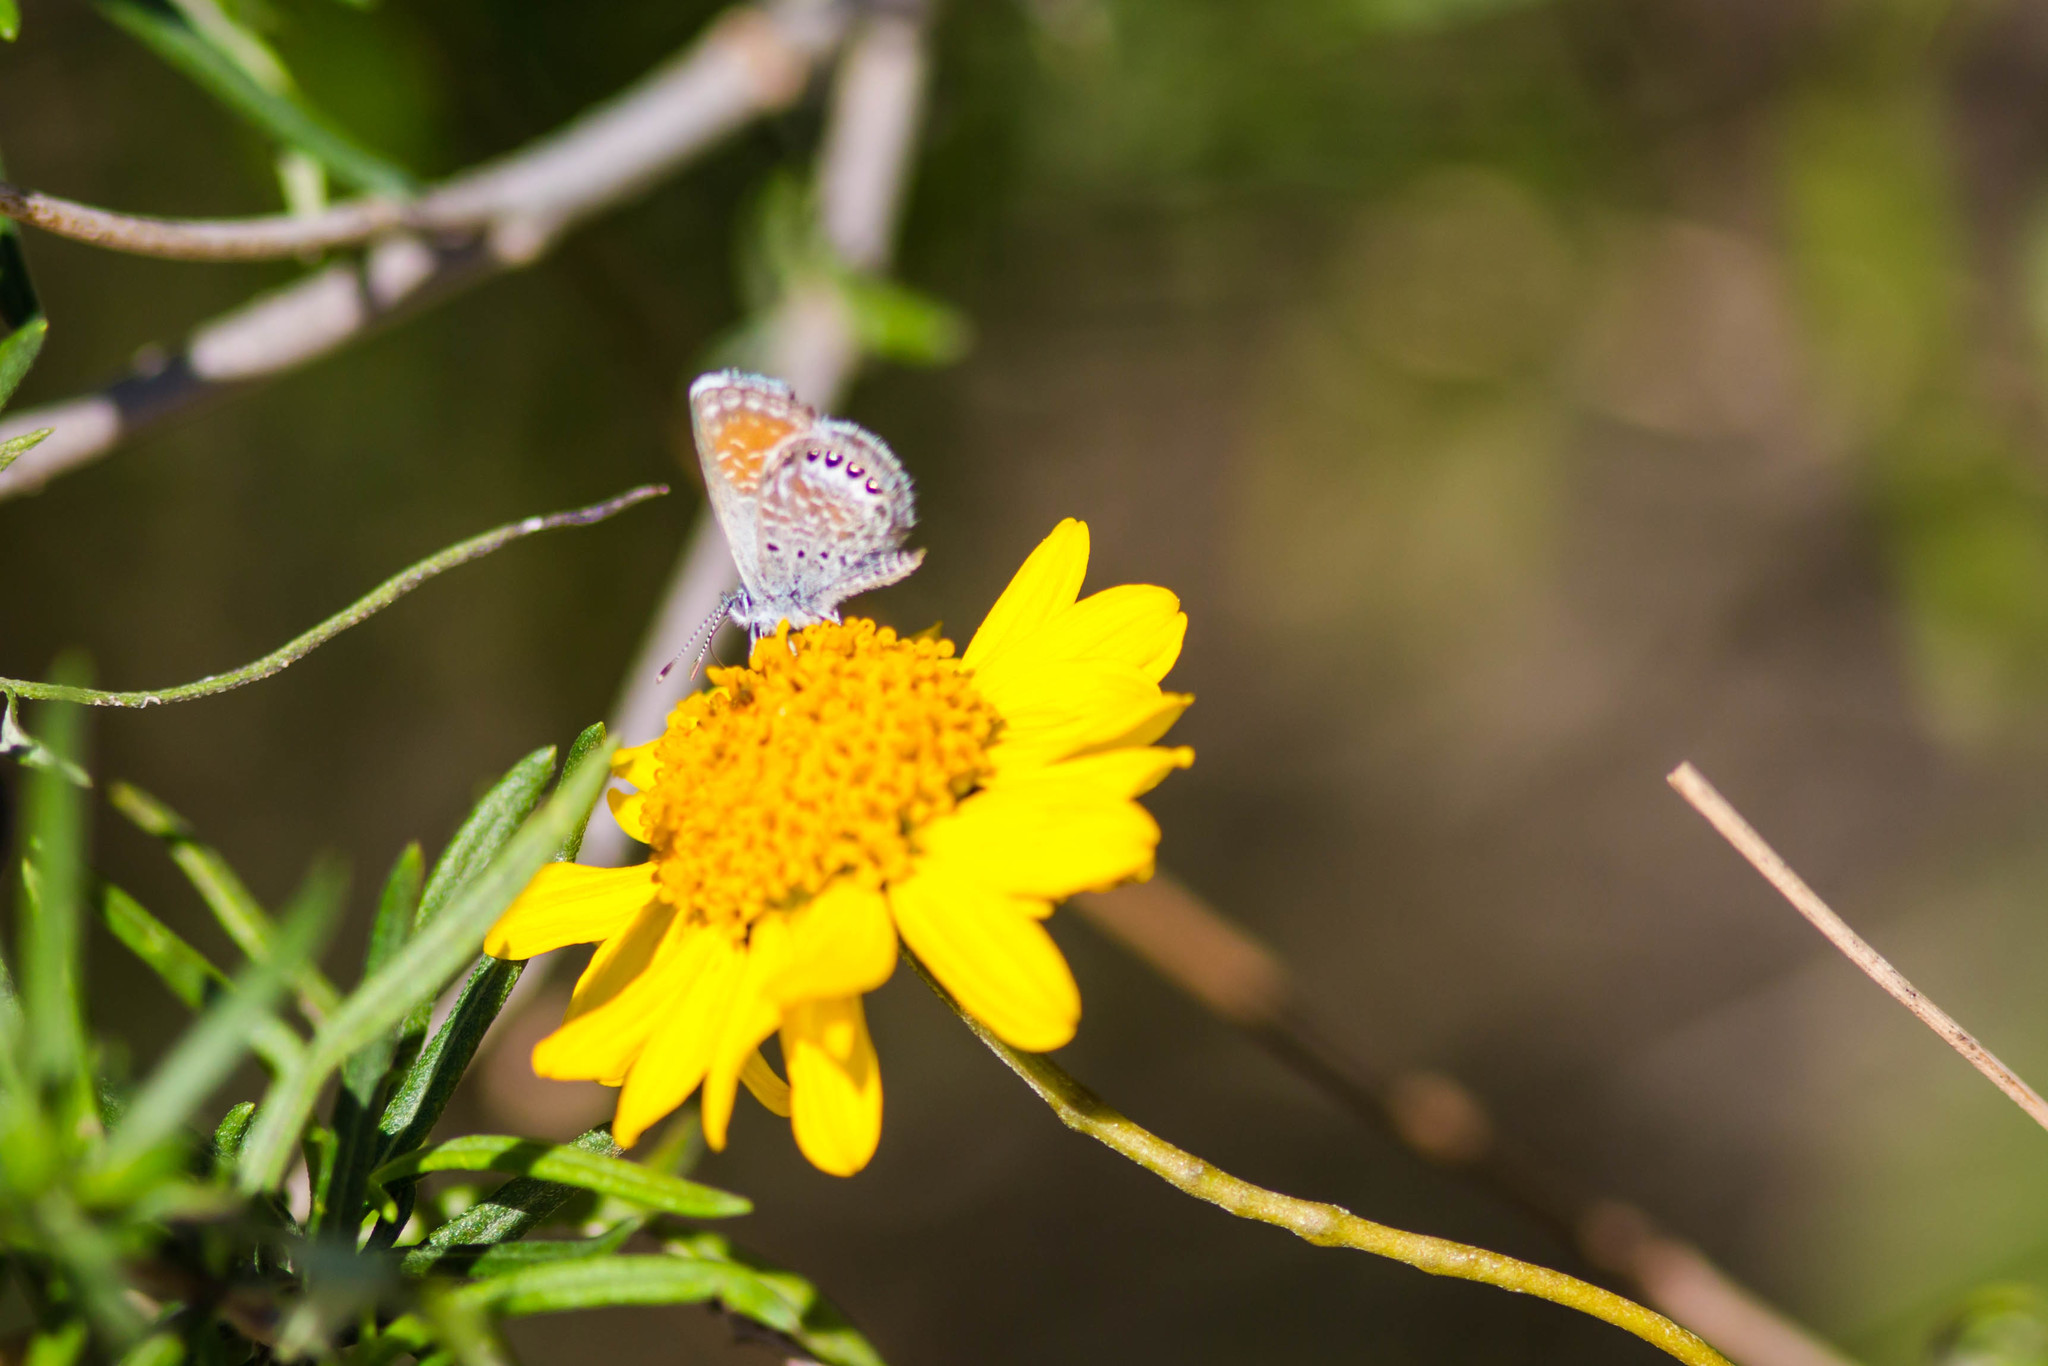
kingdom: Animalia
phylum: Arthropoda
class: Insecta
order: Lepidoptera
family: Lycaenidae
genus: Brephidium
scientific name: Brephidium exilis
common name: Pygmy blue
